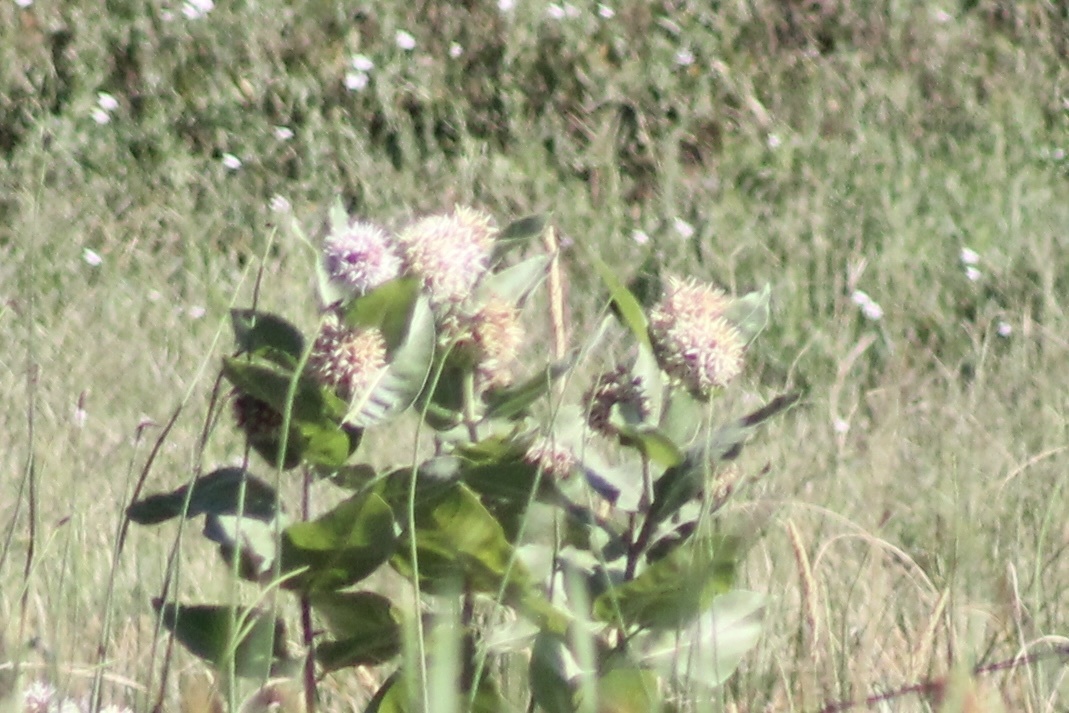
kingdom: Plantae
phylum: Tracheophyta
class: Magnoliopsida
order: Gentianales
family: Apocynaceae
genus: Asclepias
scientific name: Asclepias speciosa
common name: Showy milkweed
